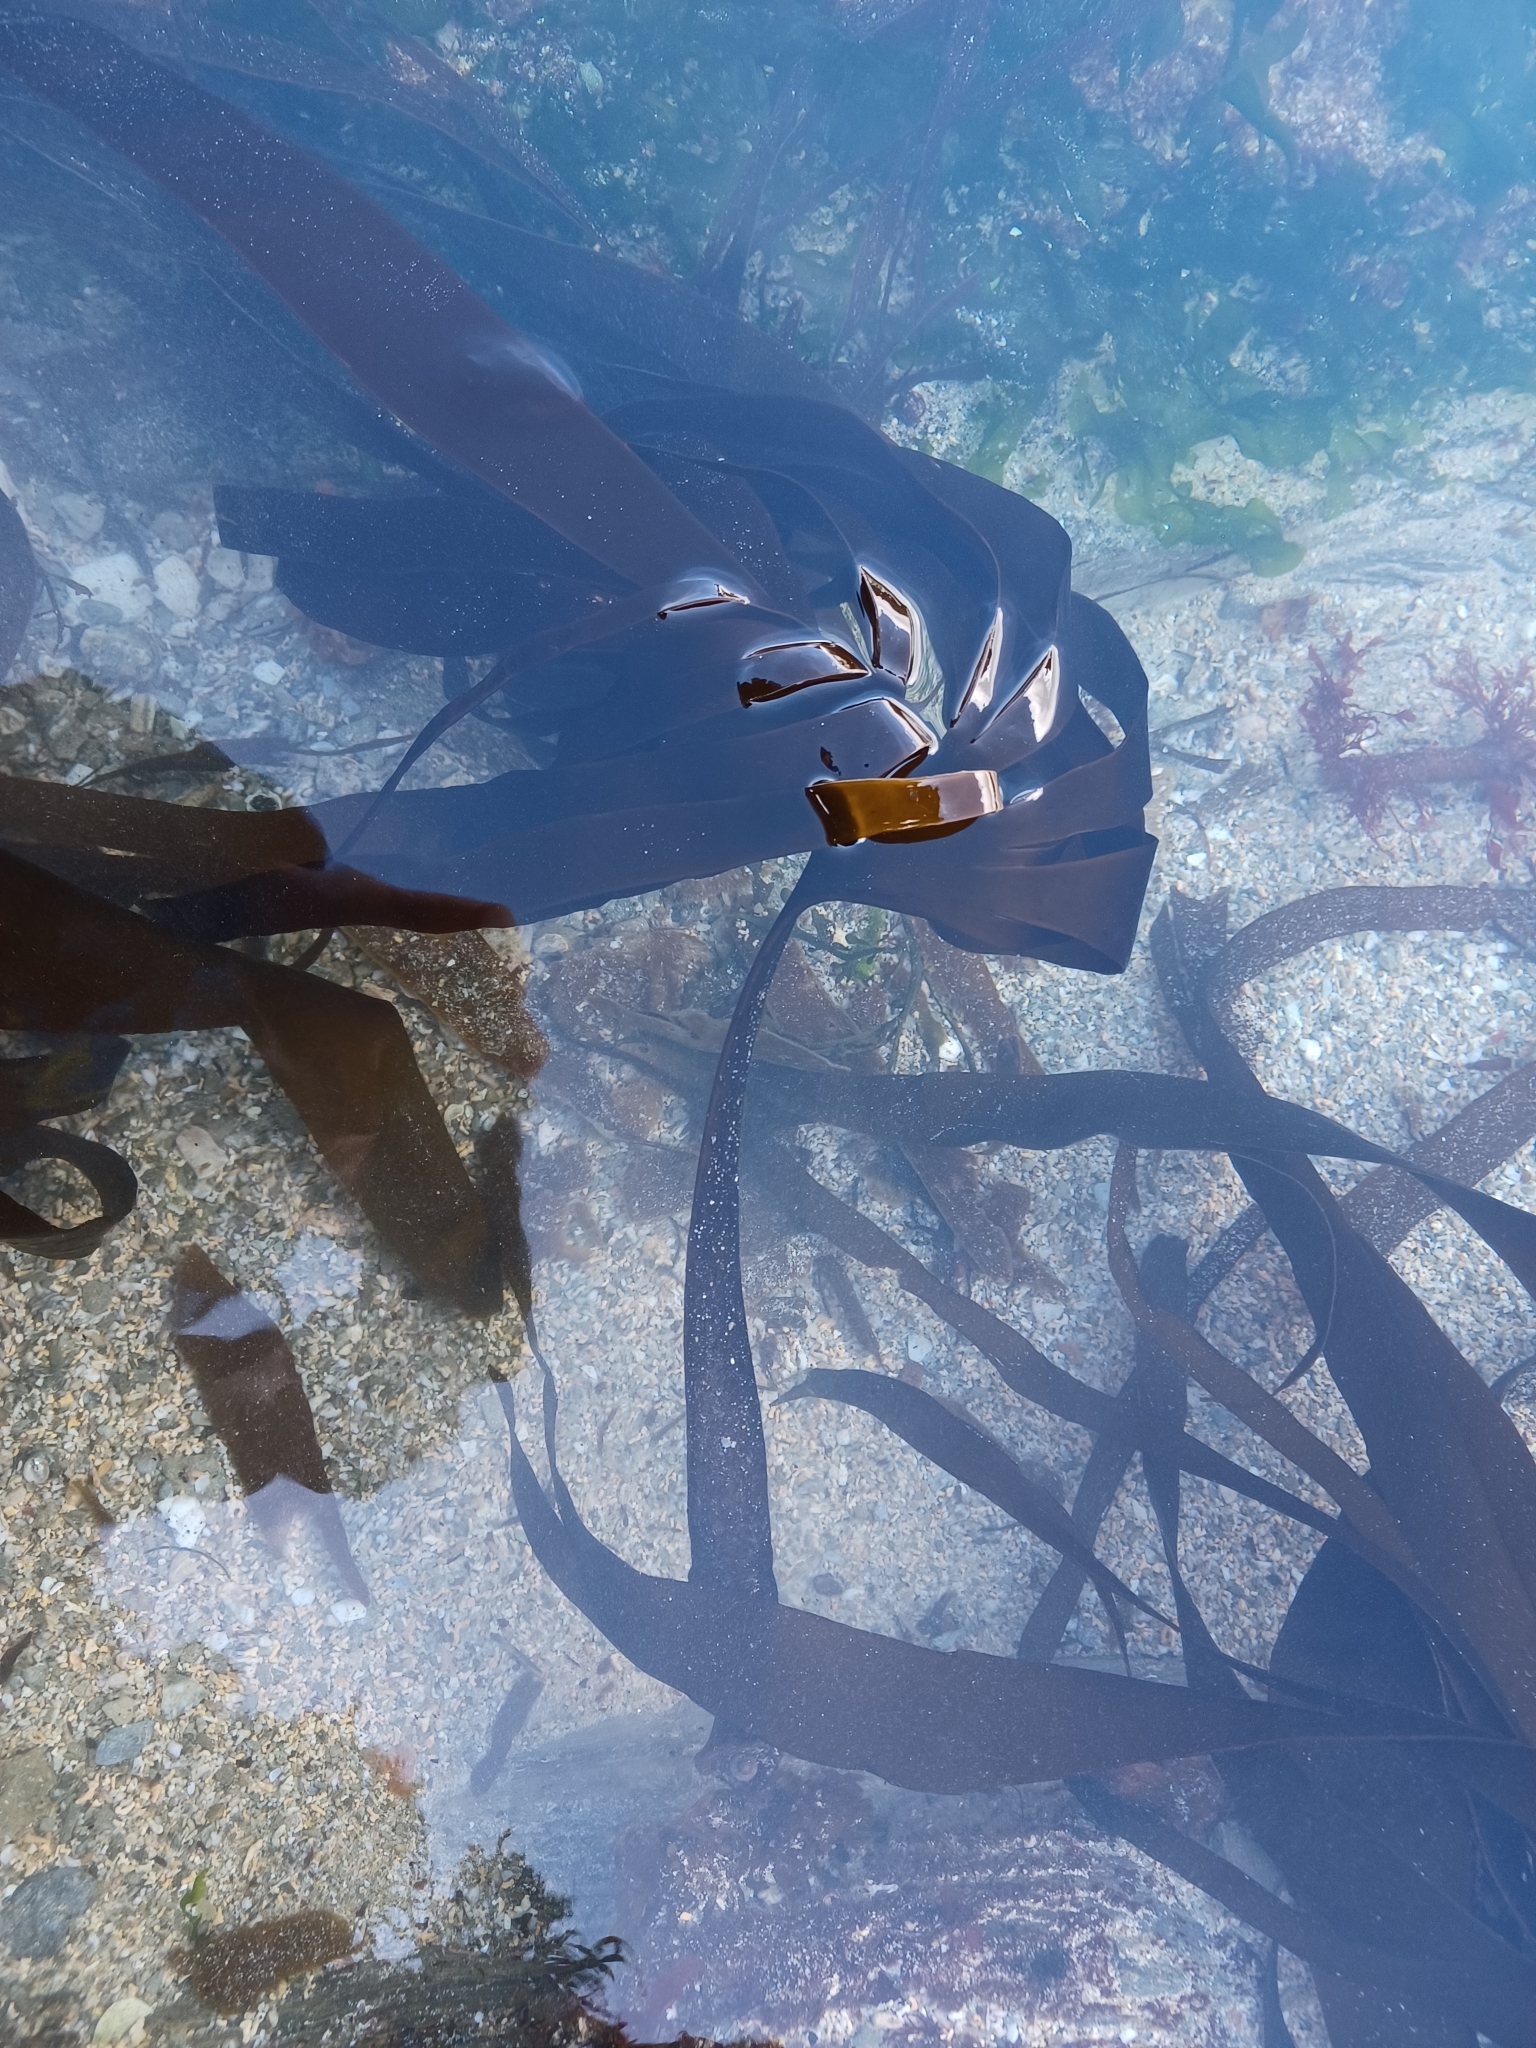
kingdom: Chromista
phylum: Ochrophyta
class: Phaeophyceae
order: Tilopteridales
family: Phyllariaceae
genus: Saccorhiza
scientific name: Saccorhiza polyschides
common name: Furbelows
